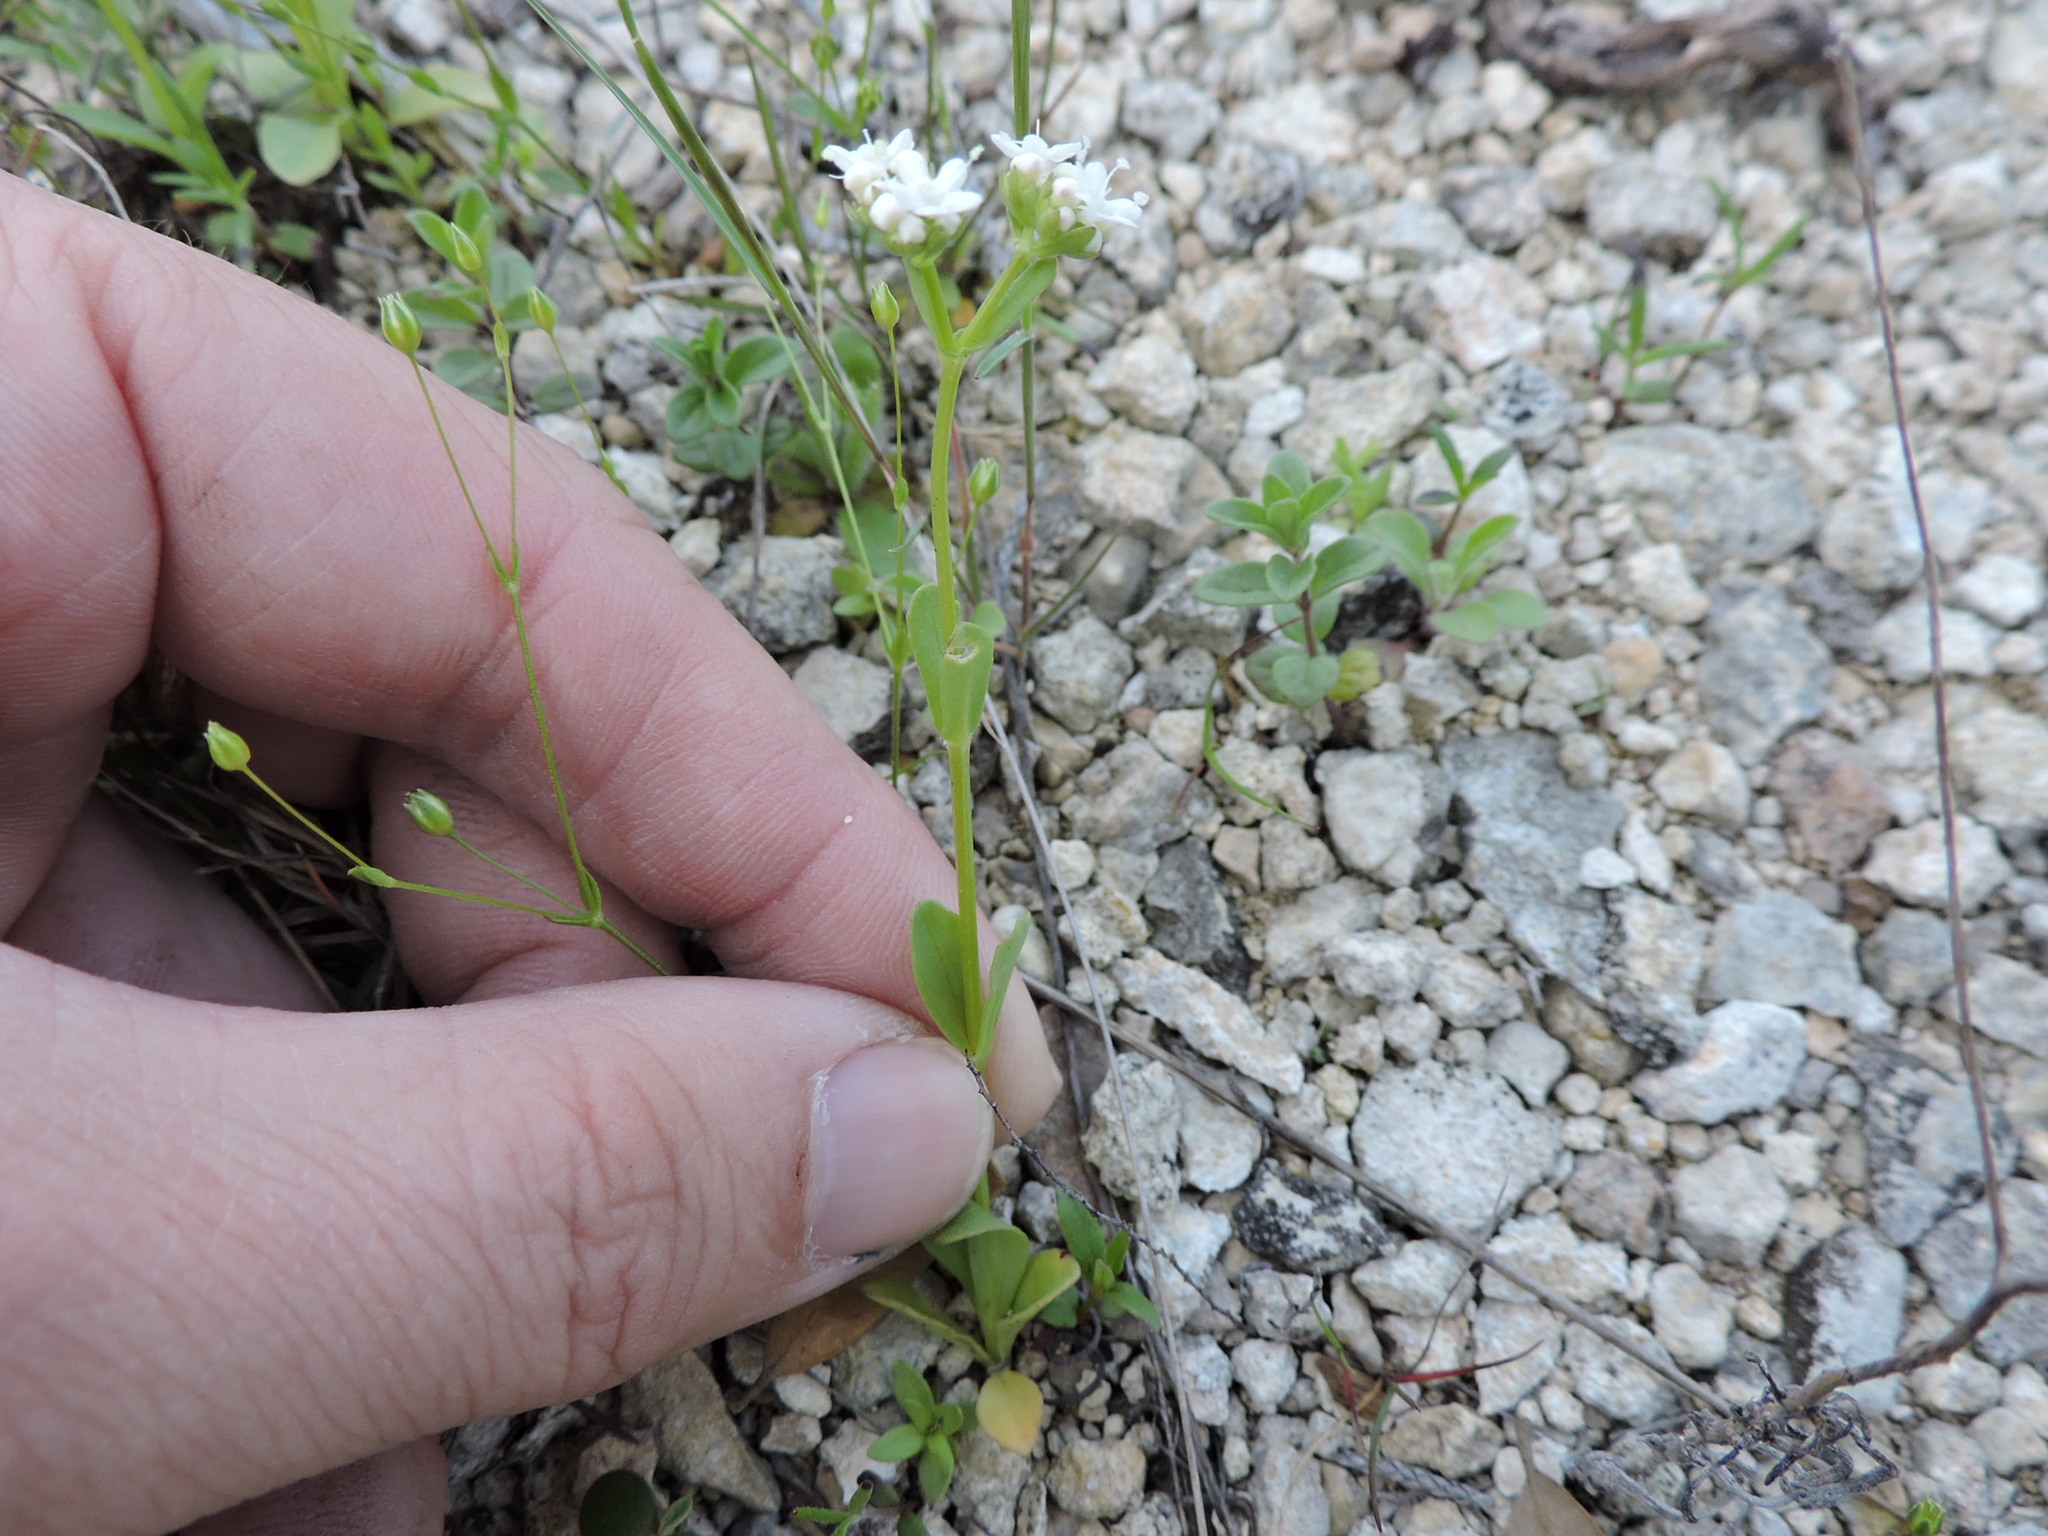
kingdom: Plantae
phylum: Tracheophyta
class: Magnoliopsida
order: Dipsacales
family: Caprifoliaceae
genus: Valerianella
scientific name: Valerianella amarella
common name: Hariy cornsalad
